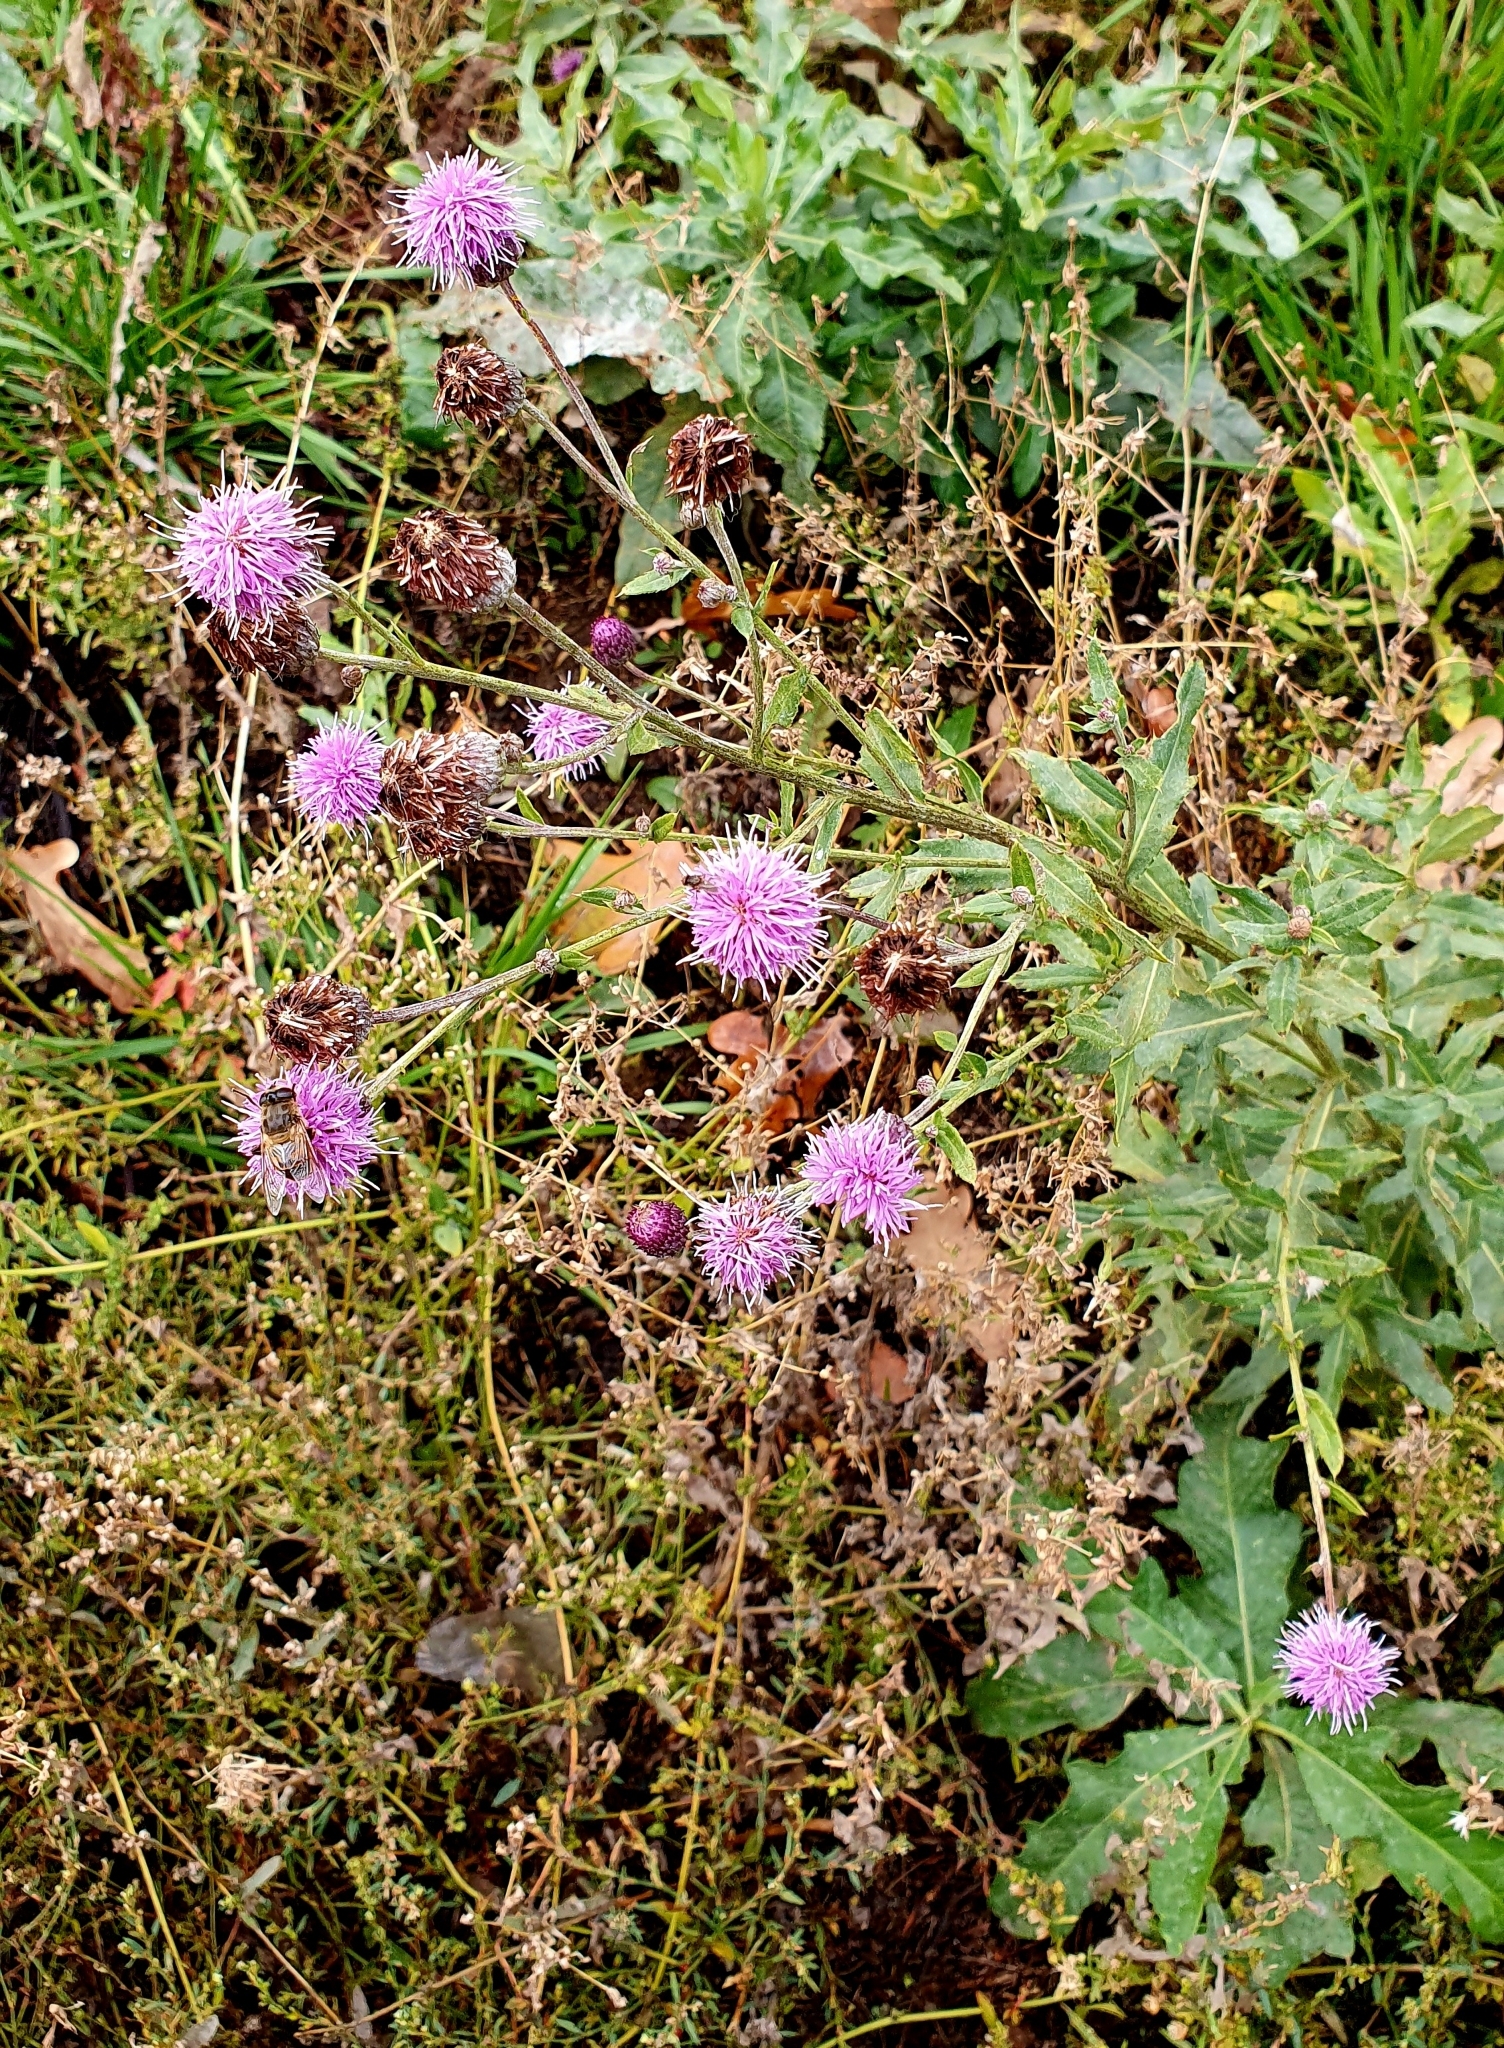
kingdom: Plantae
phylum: Tracheophyta
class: Magnoliopsida
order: Asterales
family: Asteraceae
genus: Cirsium
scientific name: Cirsium arvense
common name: Creeping thistle
